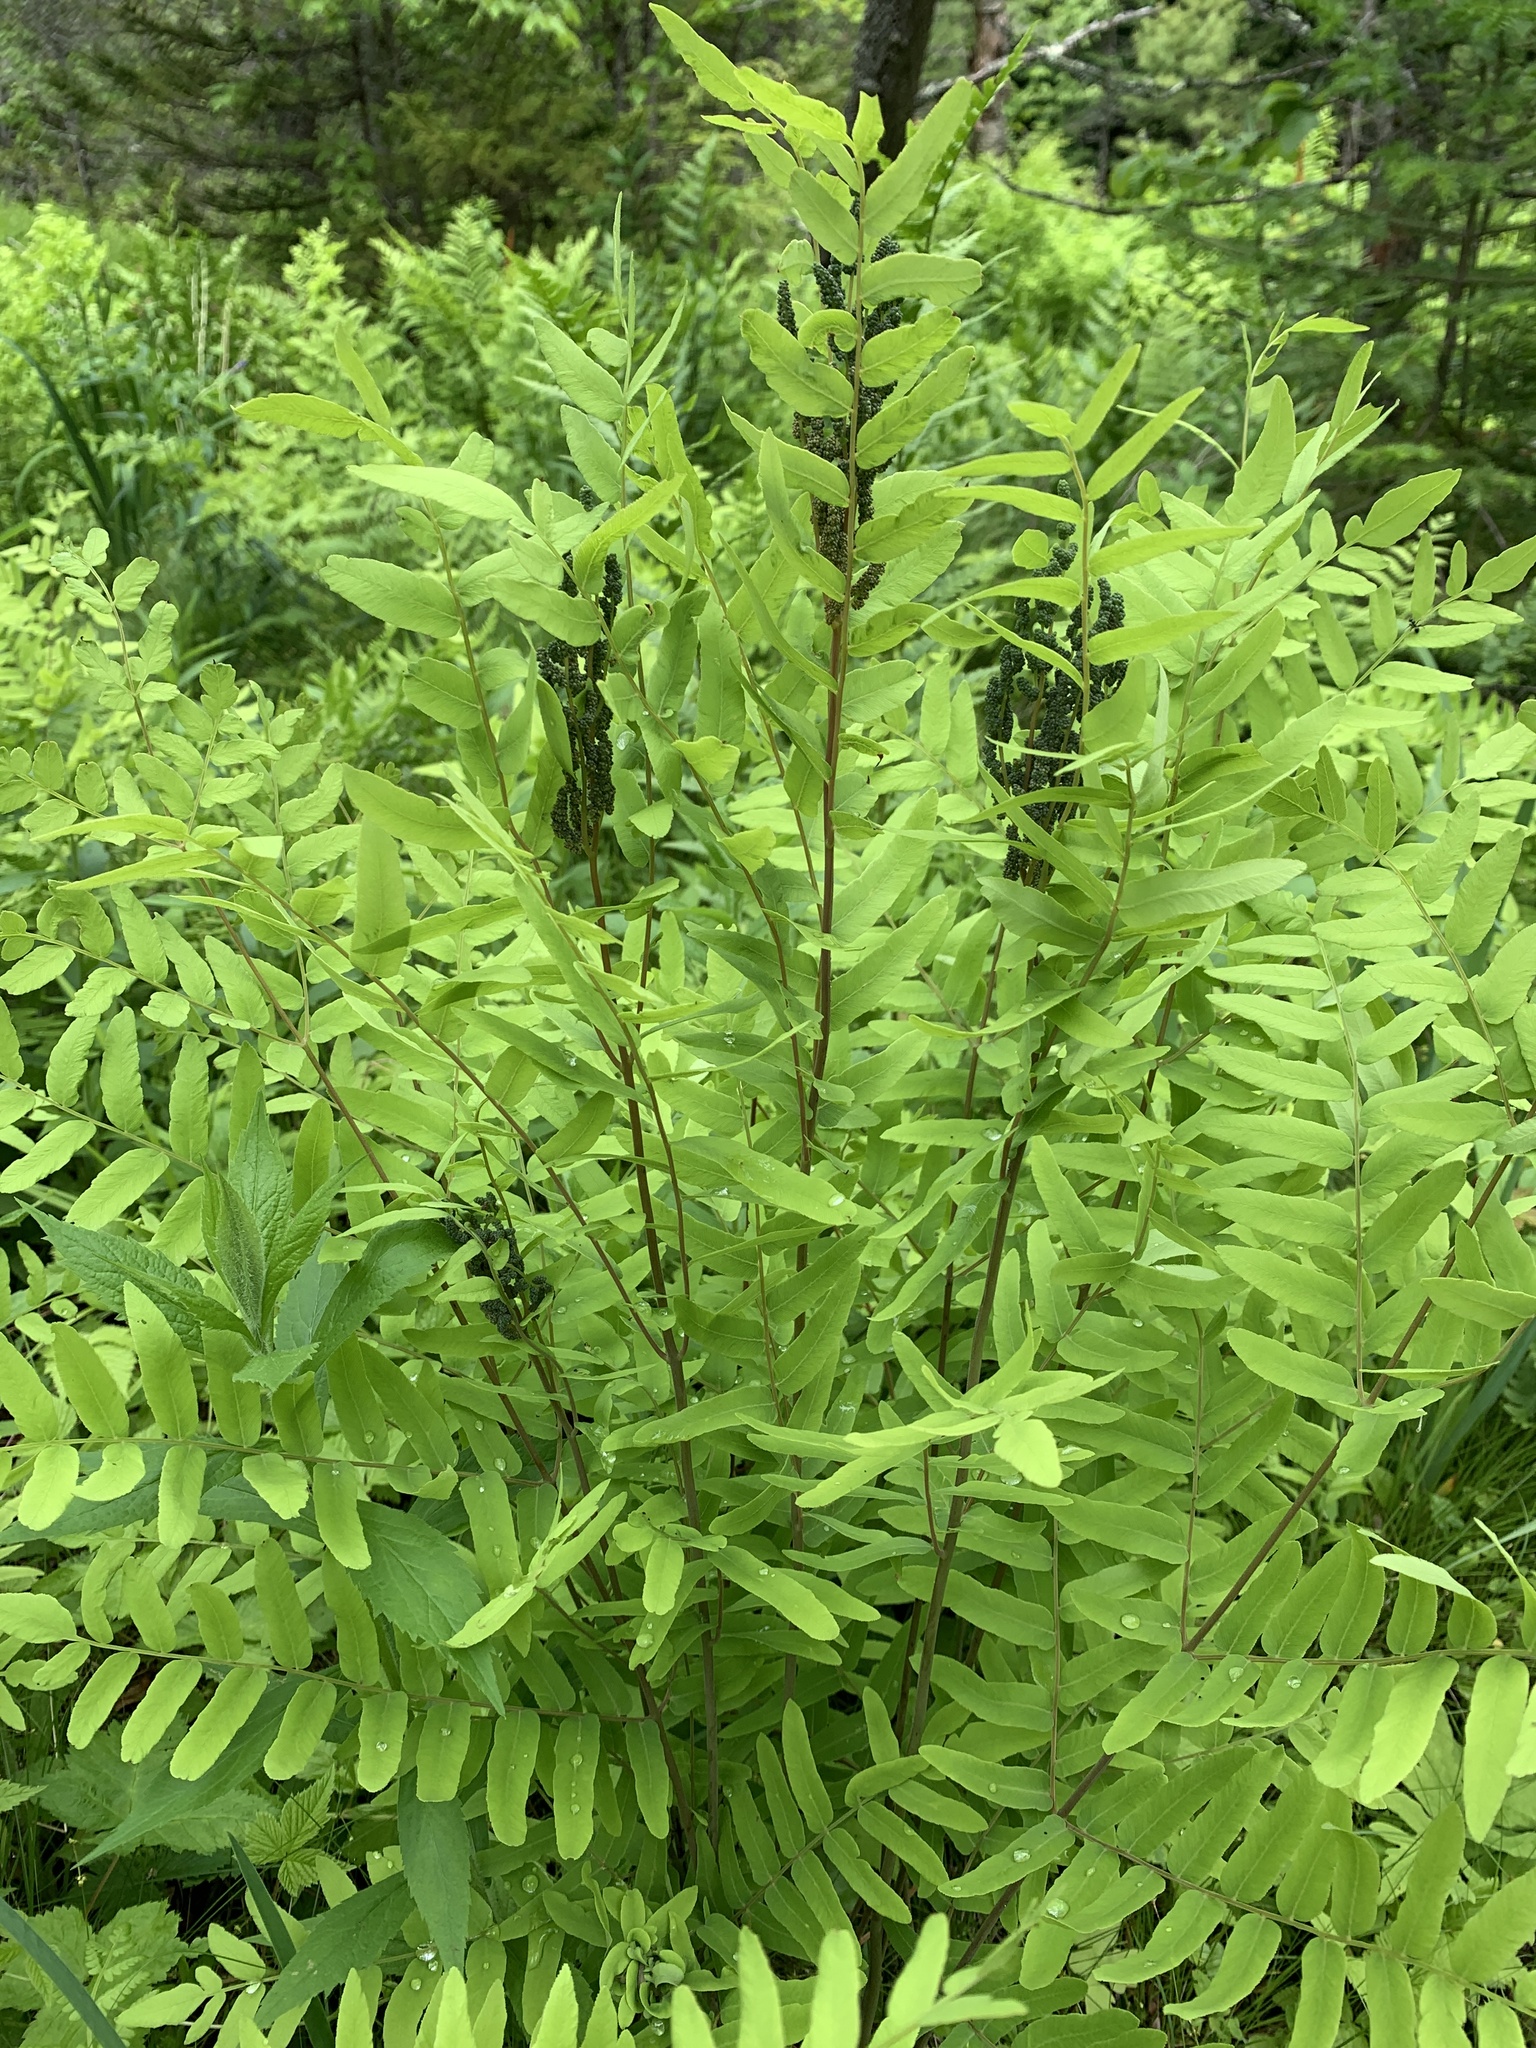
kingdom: Plantae
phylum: Tracheophyta
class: Polypodiopsida
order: Osmundales
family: Osmundaceae
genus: Osmunda
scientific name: Osmunda spectabilis
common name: American royal fern
